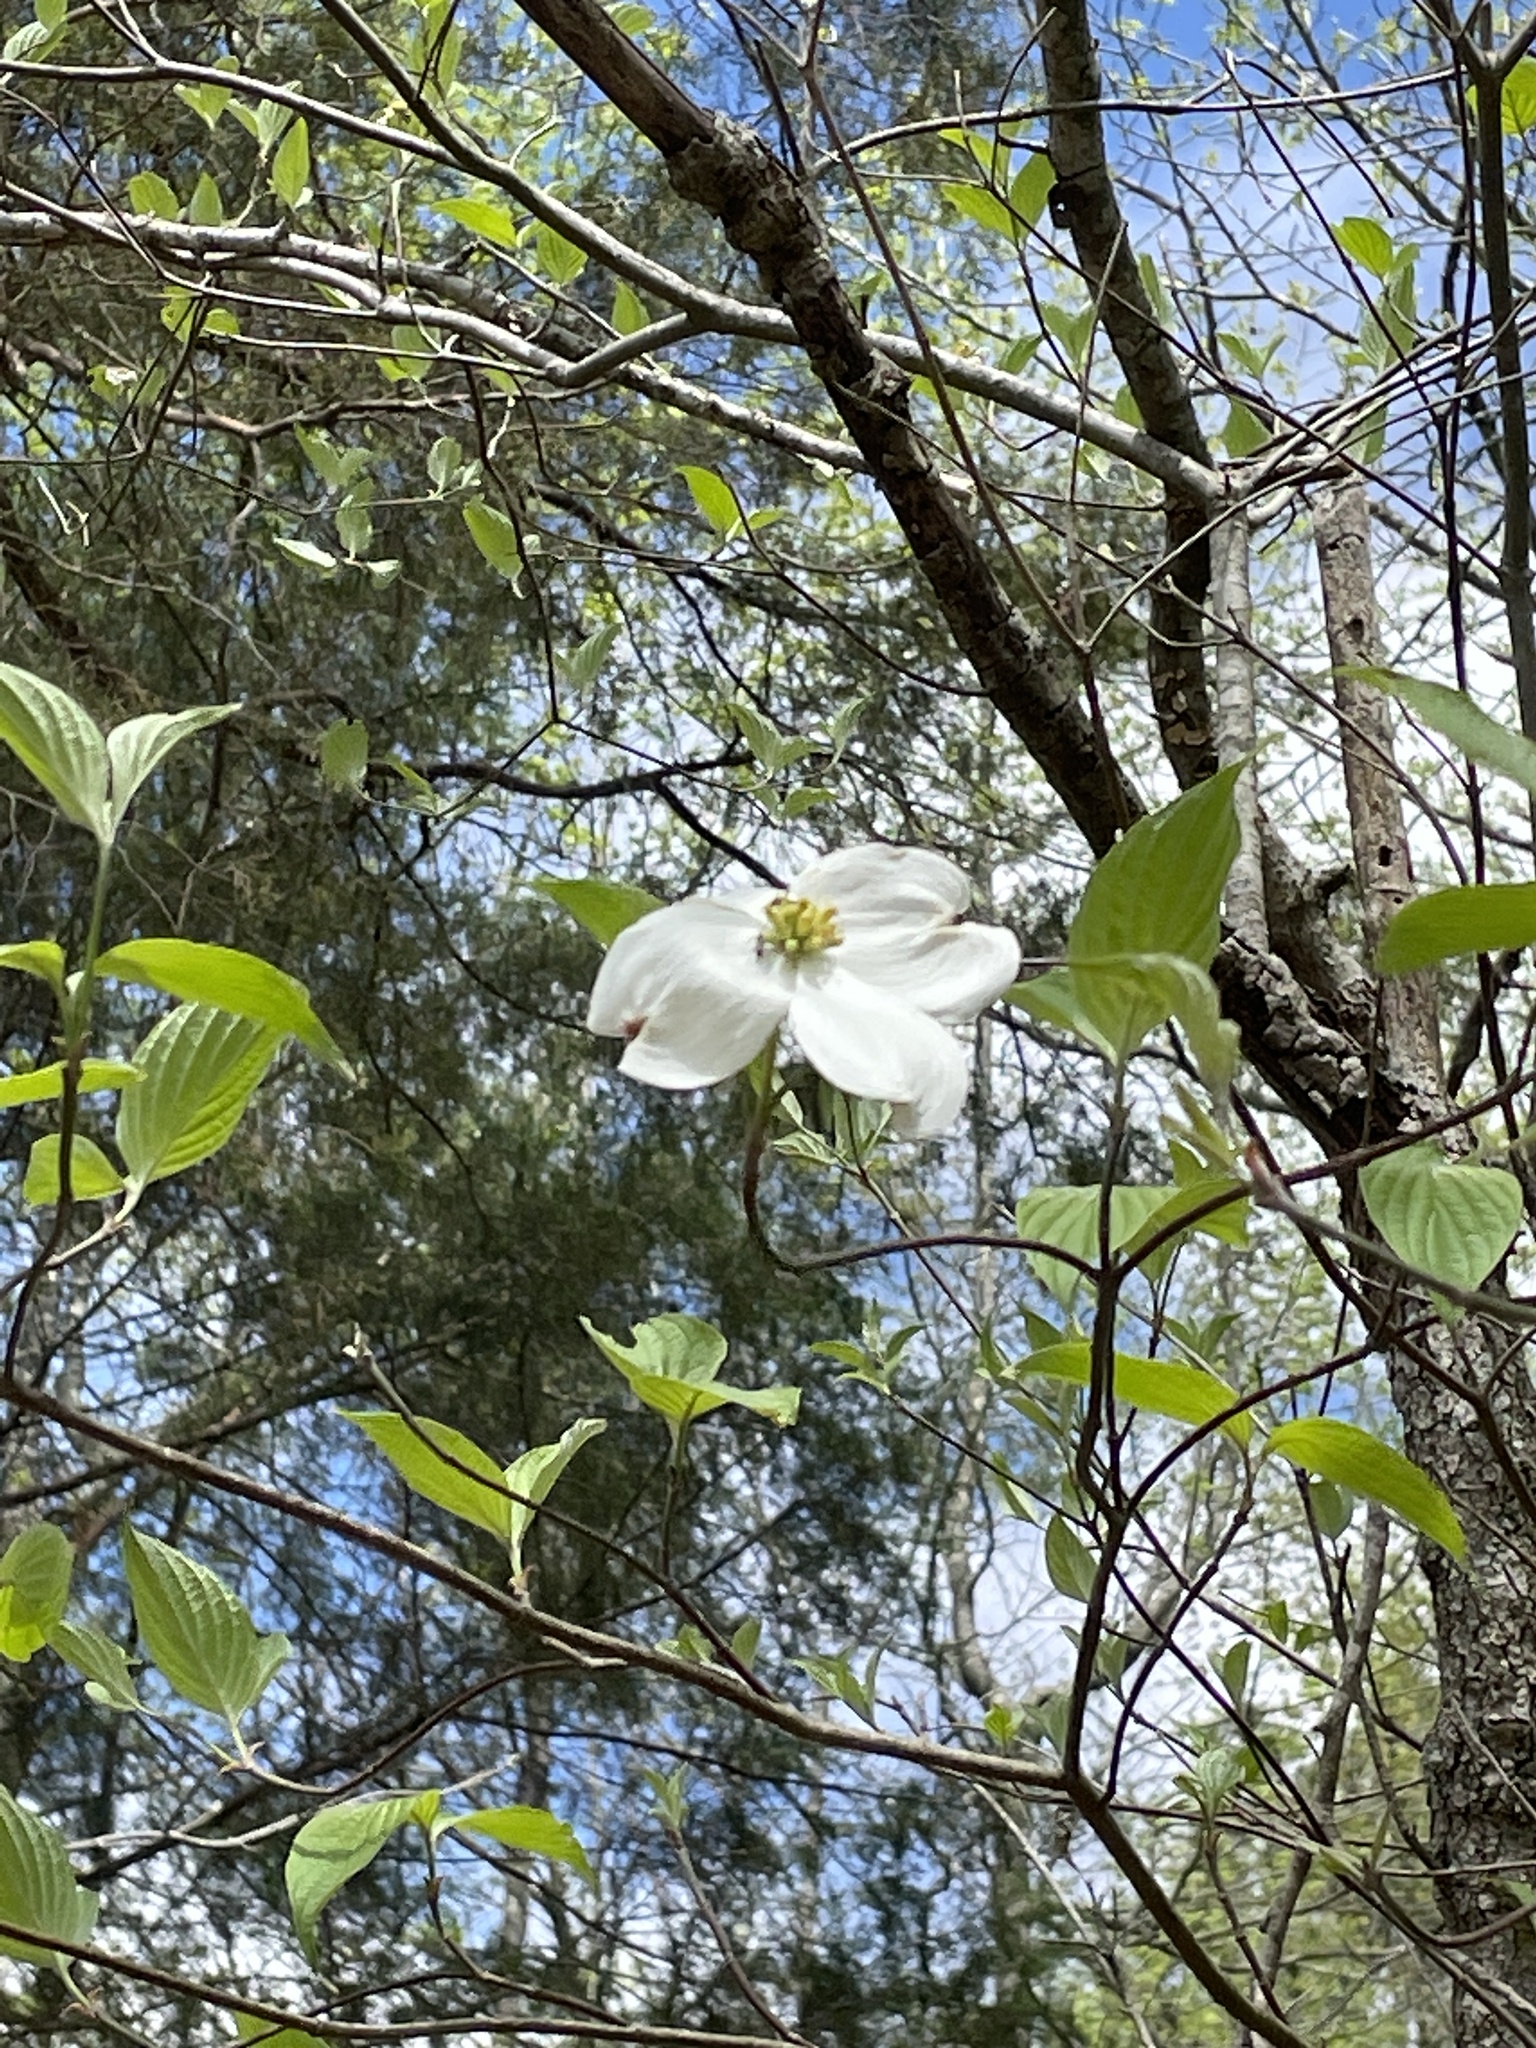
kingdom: Plantae
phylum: Tracheophyta
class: Magnoliopsida
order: Cornales
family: Cornaceae
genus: Cornus
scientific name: Cornus florida
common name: Flowering dogwood
